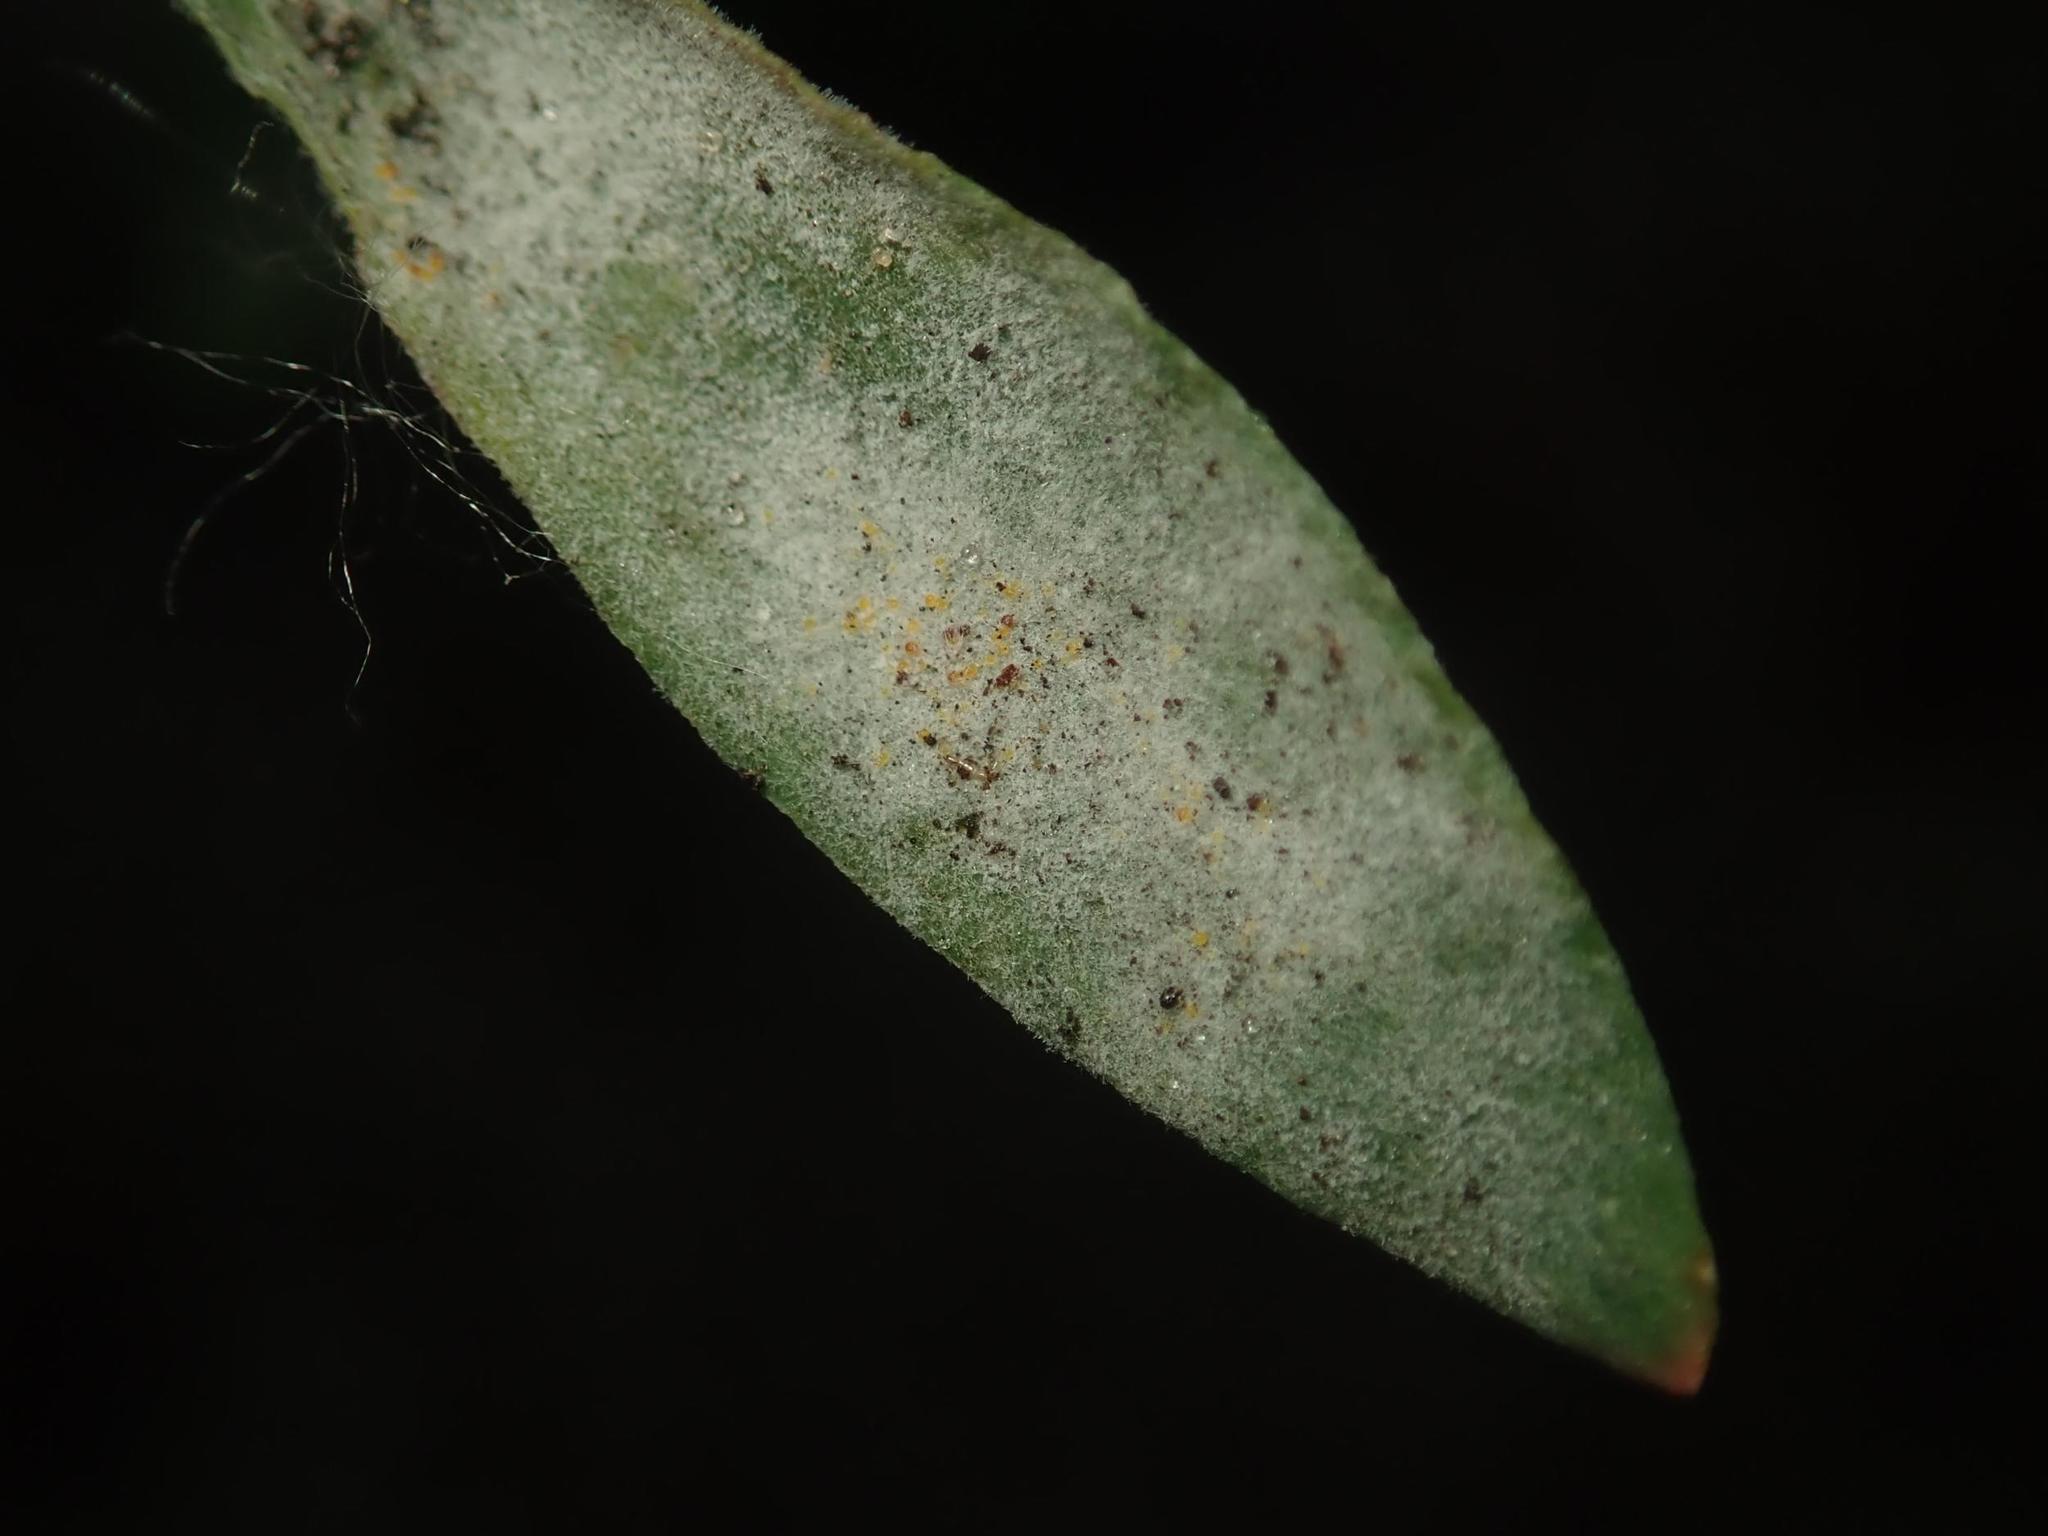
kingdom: Fungi
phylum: Ascomycota
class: Leotiomycetes
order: Helotiales
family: Erysiphaceae
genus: Erysiphe
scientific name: Erysiphe polygoni
